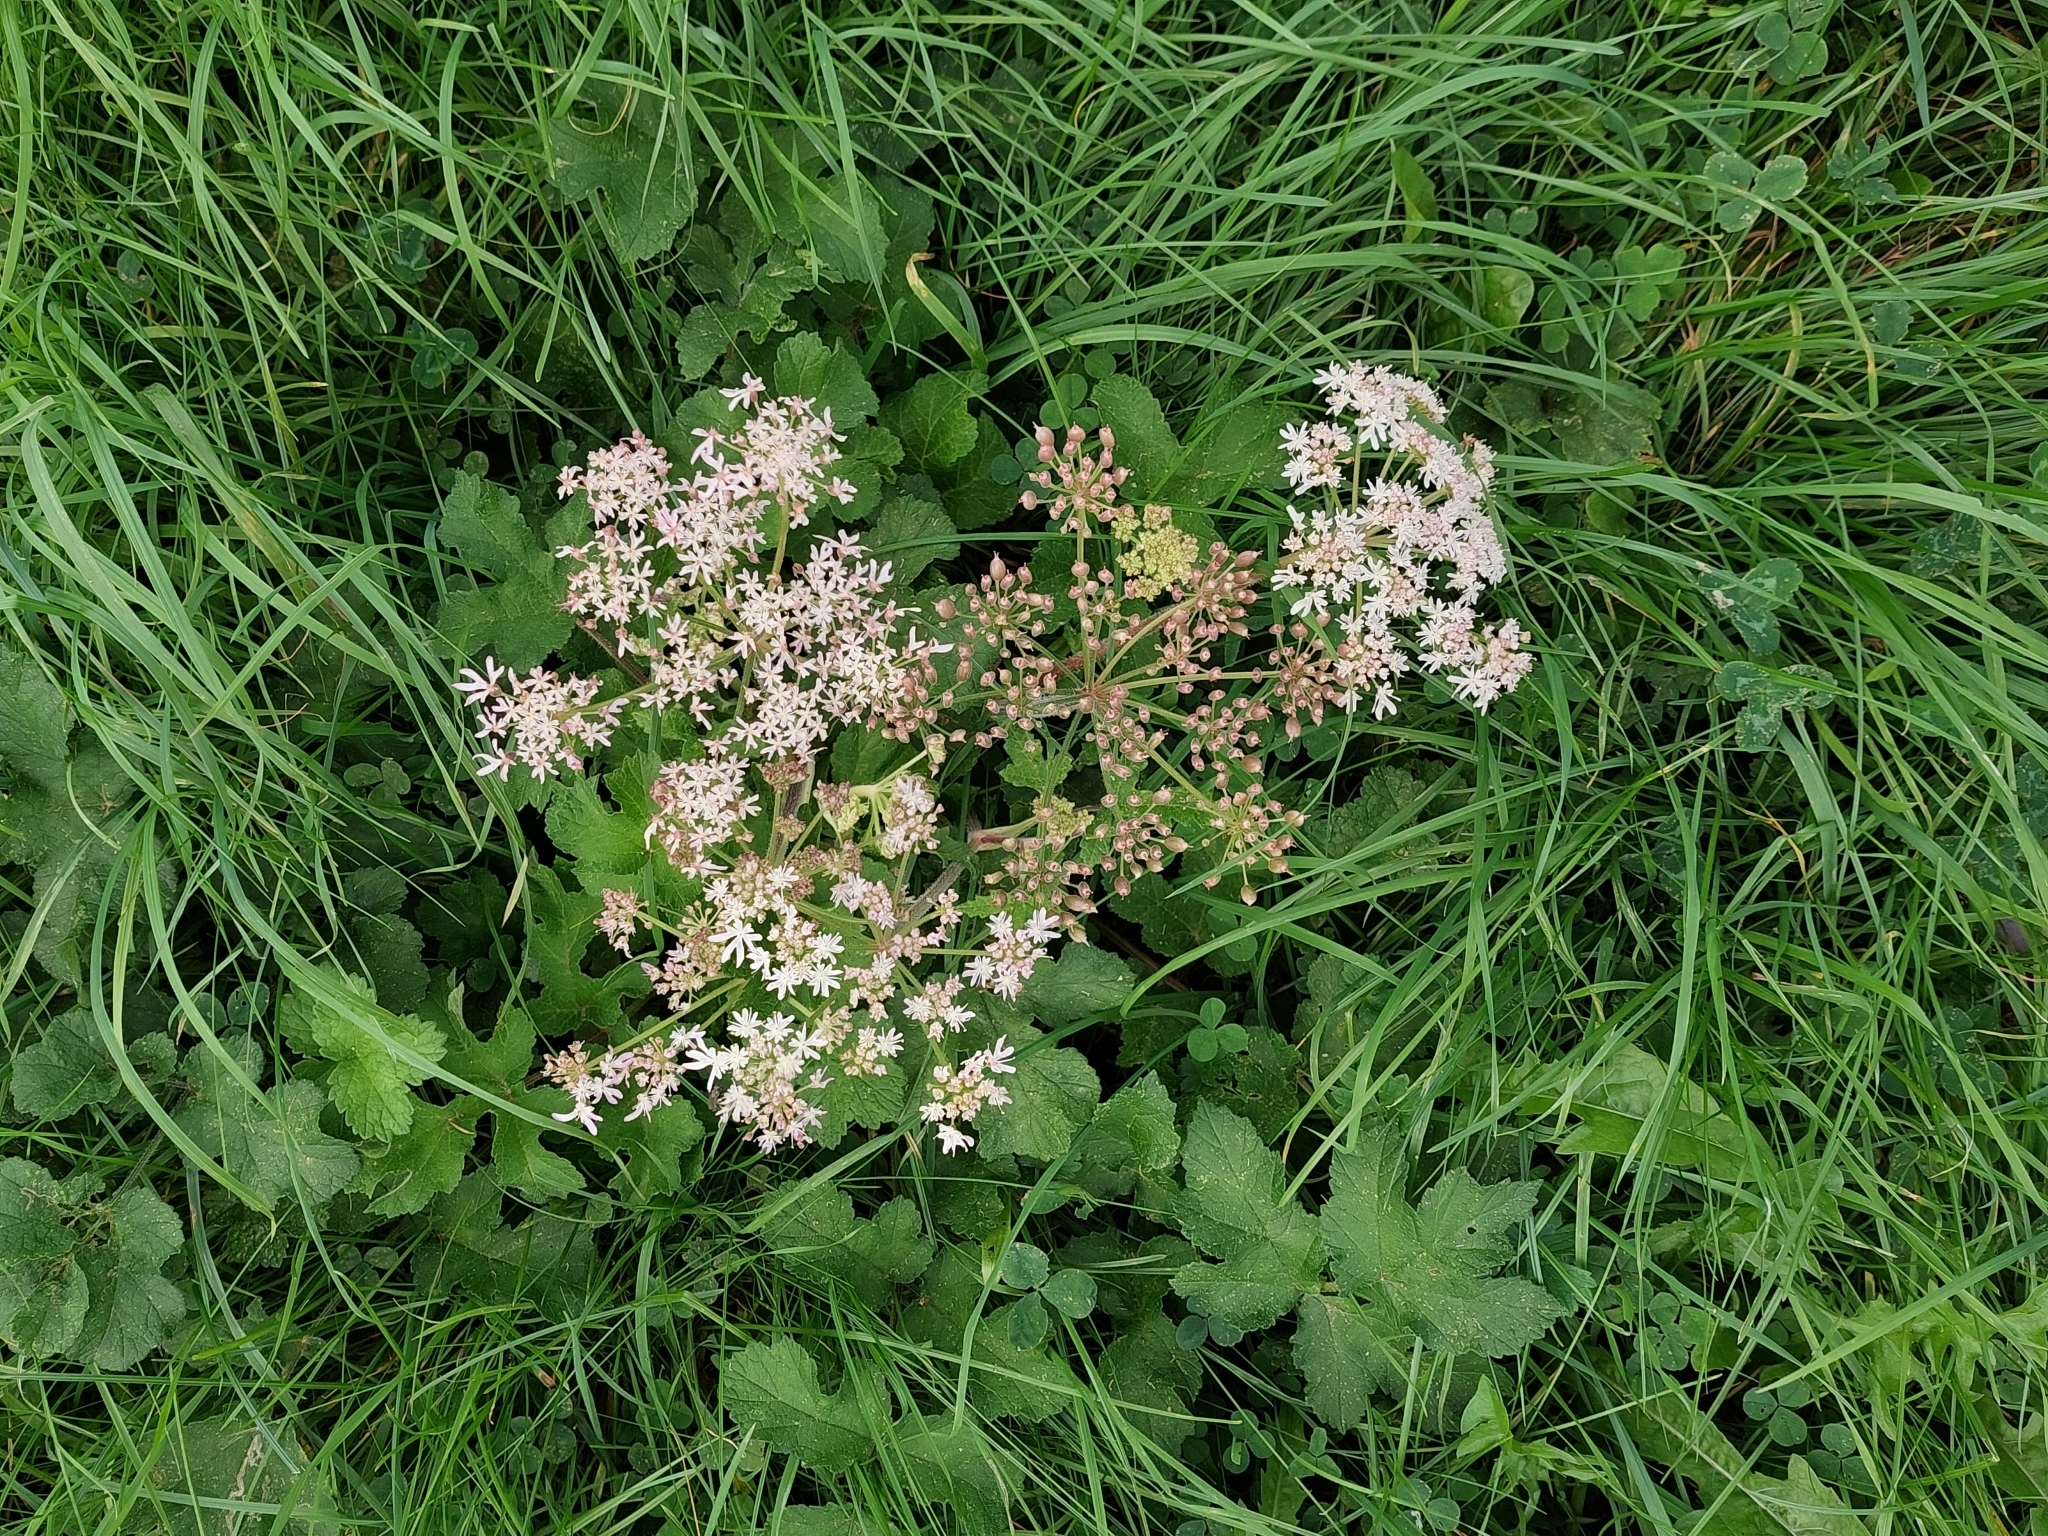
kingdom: Plantae
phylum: Tracheophyta
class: Magnoliopsida
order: Apiales
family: Apiaceae
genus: Heracleum
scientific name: Heracleum sphondylium
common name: Hogweed
